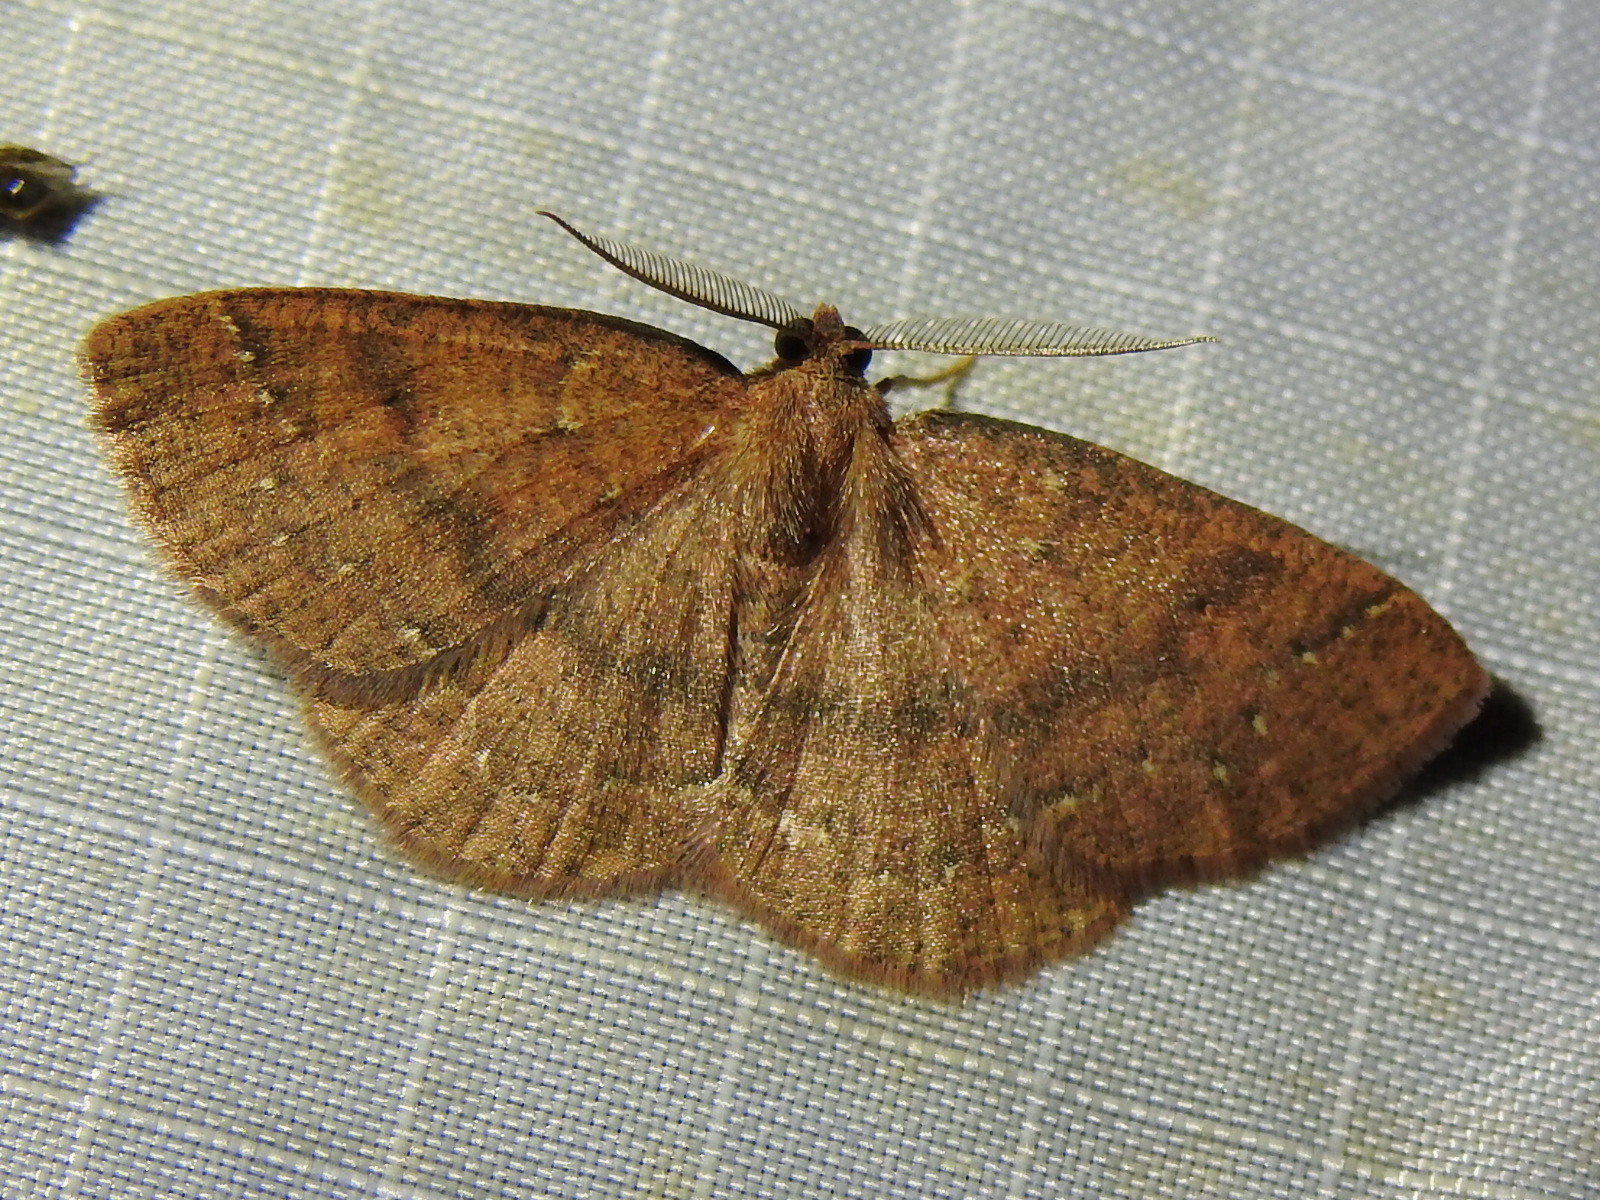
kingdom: Animalia
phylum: Arthropoda
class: Insecta
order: Lepidoptera
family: Geometridae
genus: Ilexia
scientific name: Ilexia intractata
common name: Black-dotted ruddy moth
